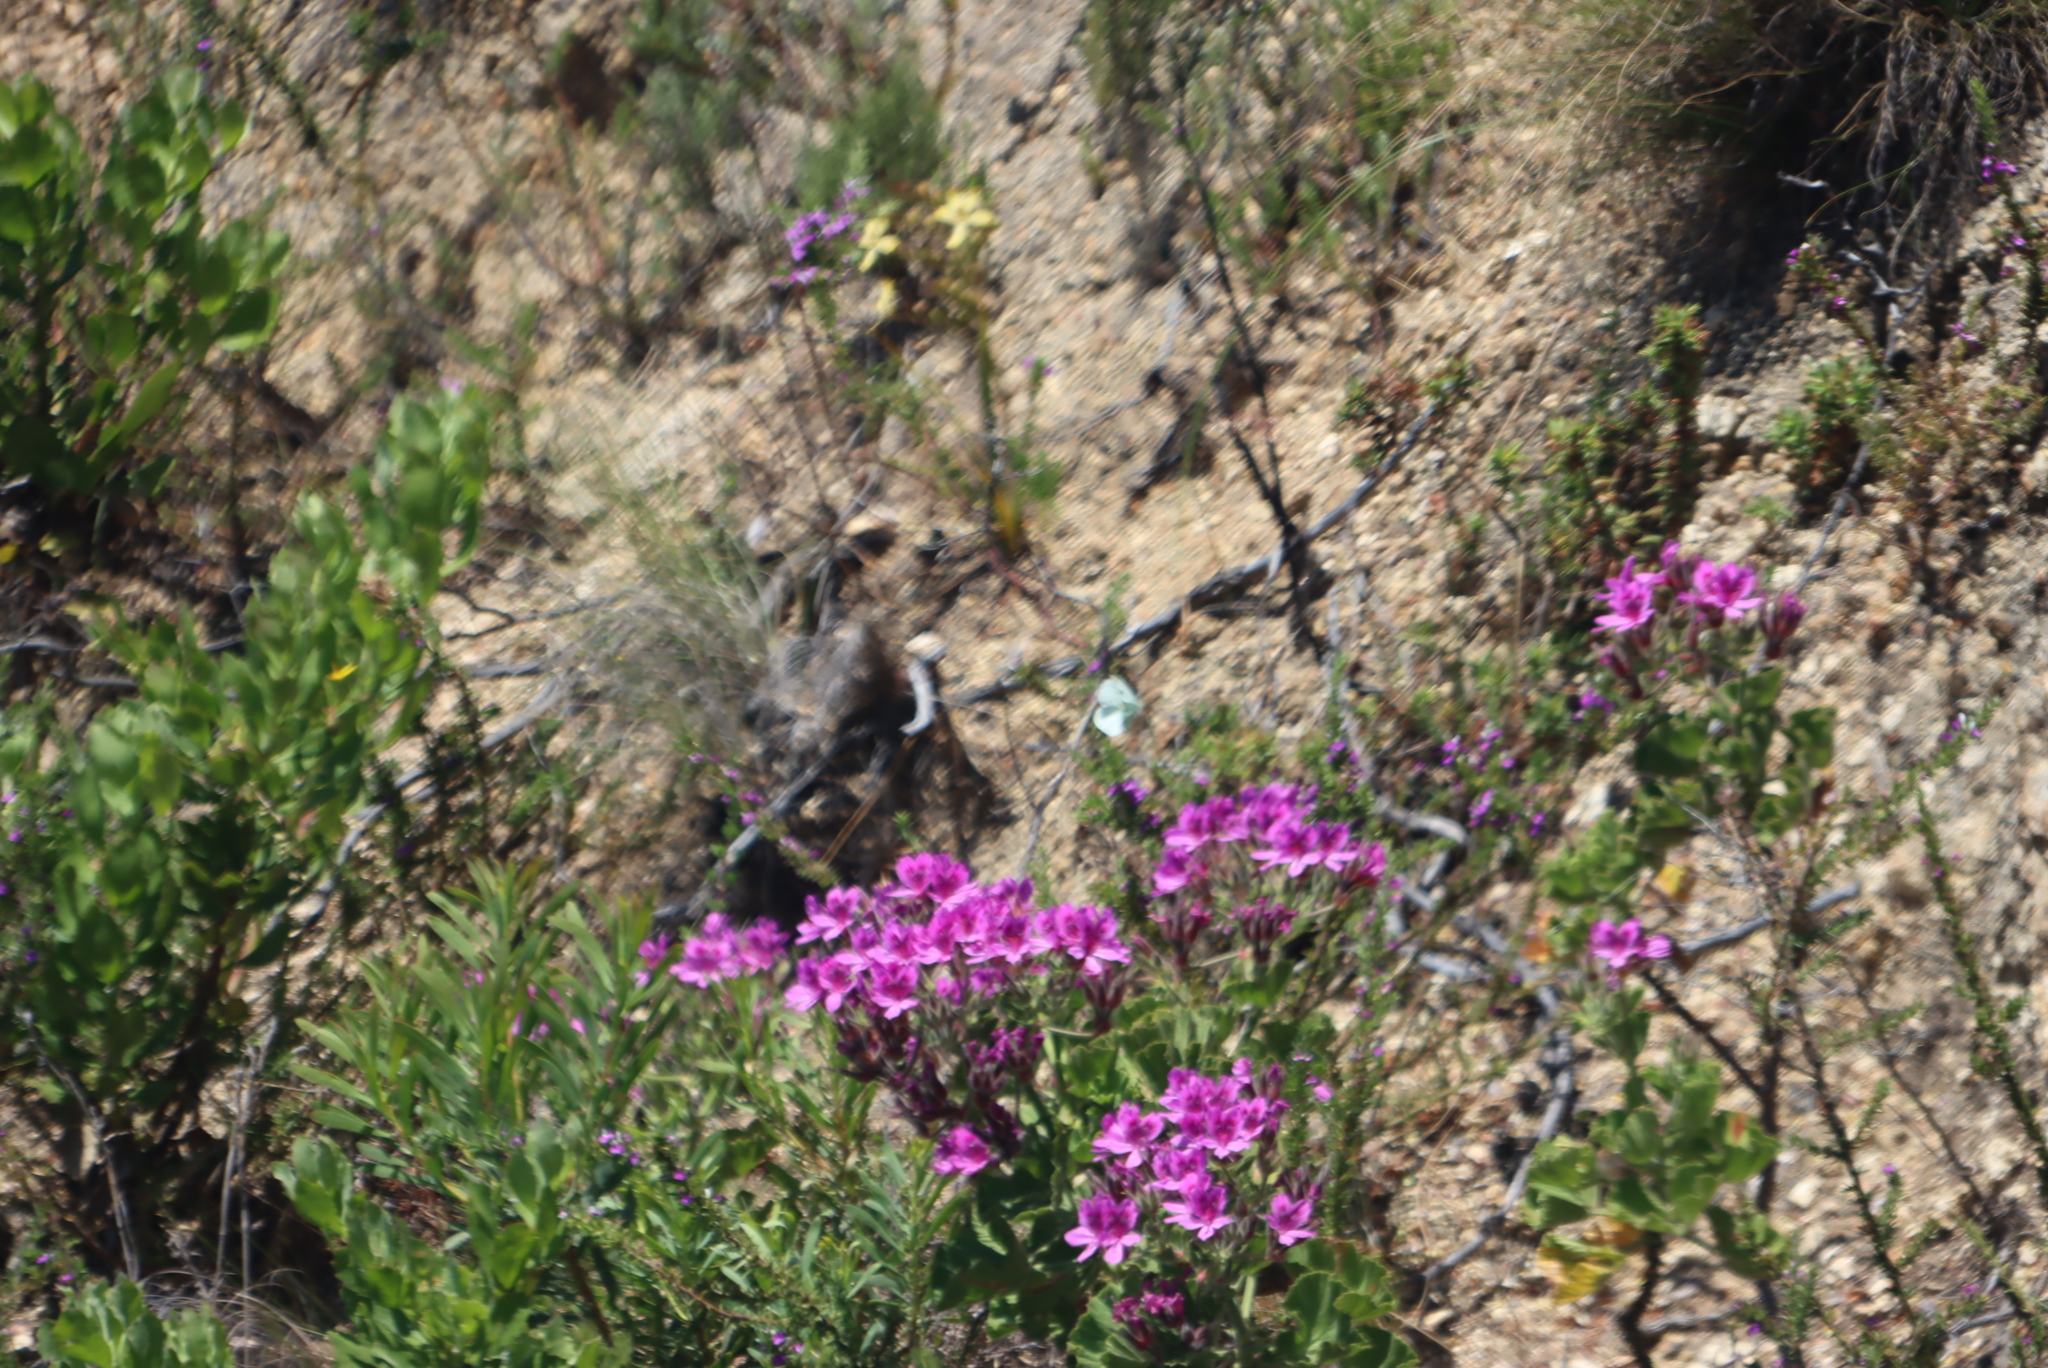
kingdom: Plantae
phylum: Tracheophyta
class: Magnoliopsida
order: Geraniales
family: Geraniaceae
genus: Pelargonium
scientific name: Pelargonium cucullatum
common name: Tree pelargonium
